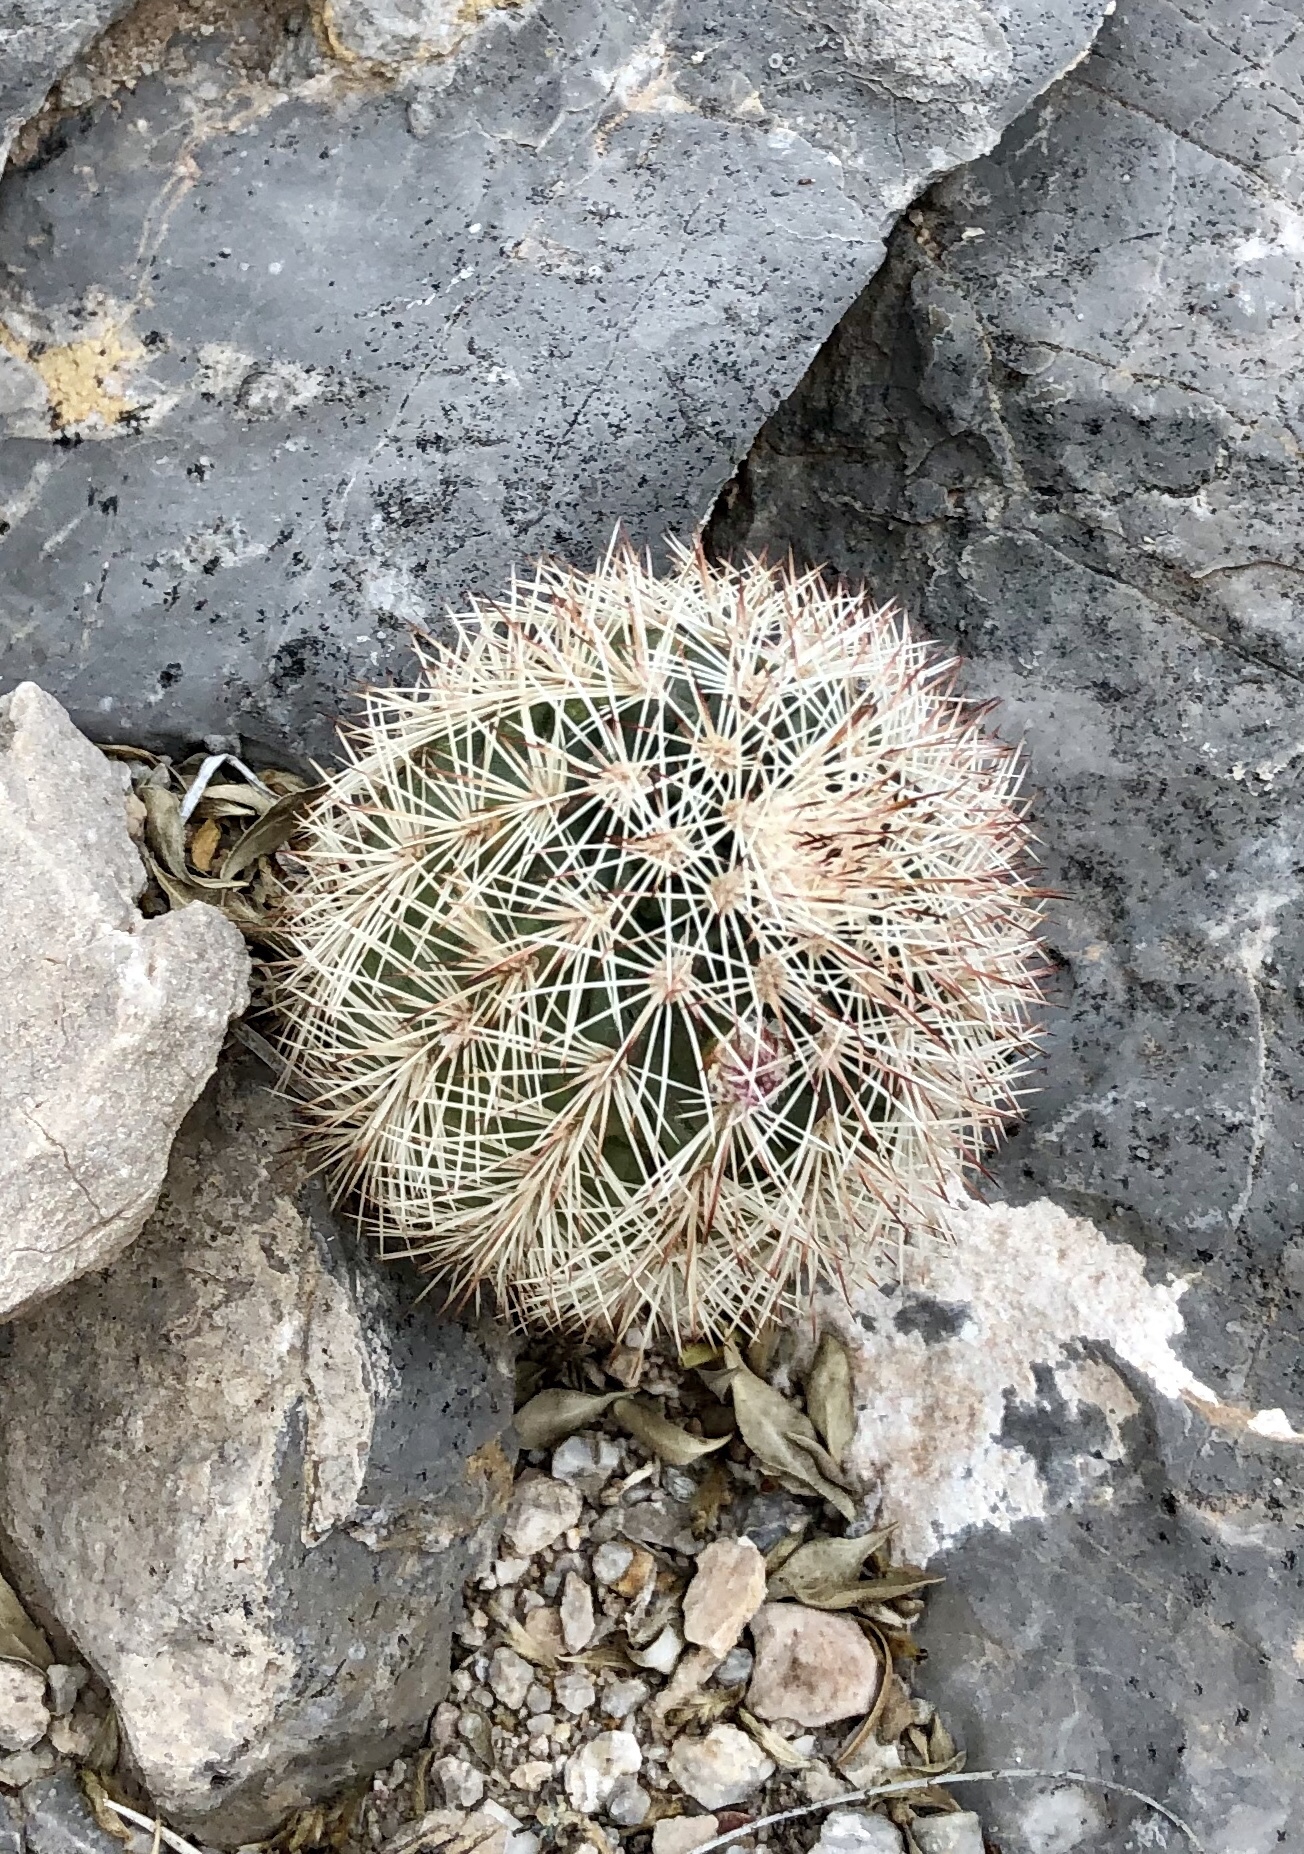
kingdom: Plantae
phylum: Tracheophyta
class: Magnoliopsida
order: Caryophyllales
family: Cactaceae
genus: Echinocereus
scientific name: Echinocereus dasyacanthus
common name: Spiny hedgehog cactus
